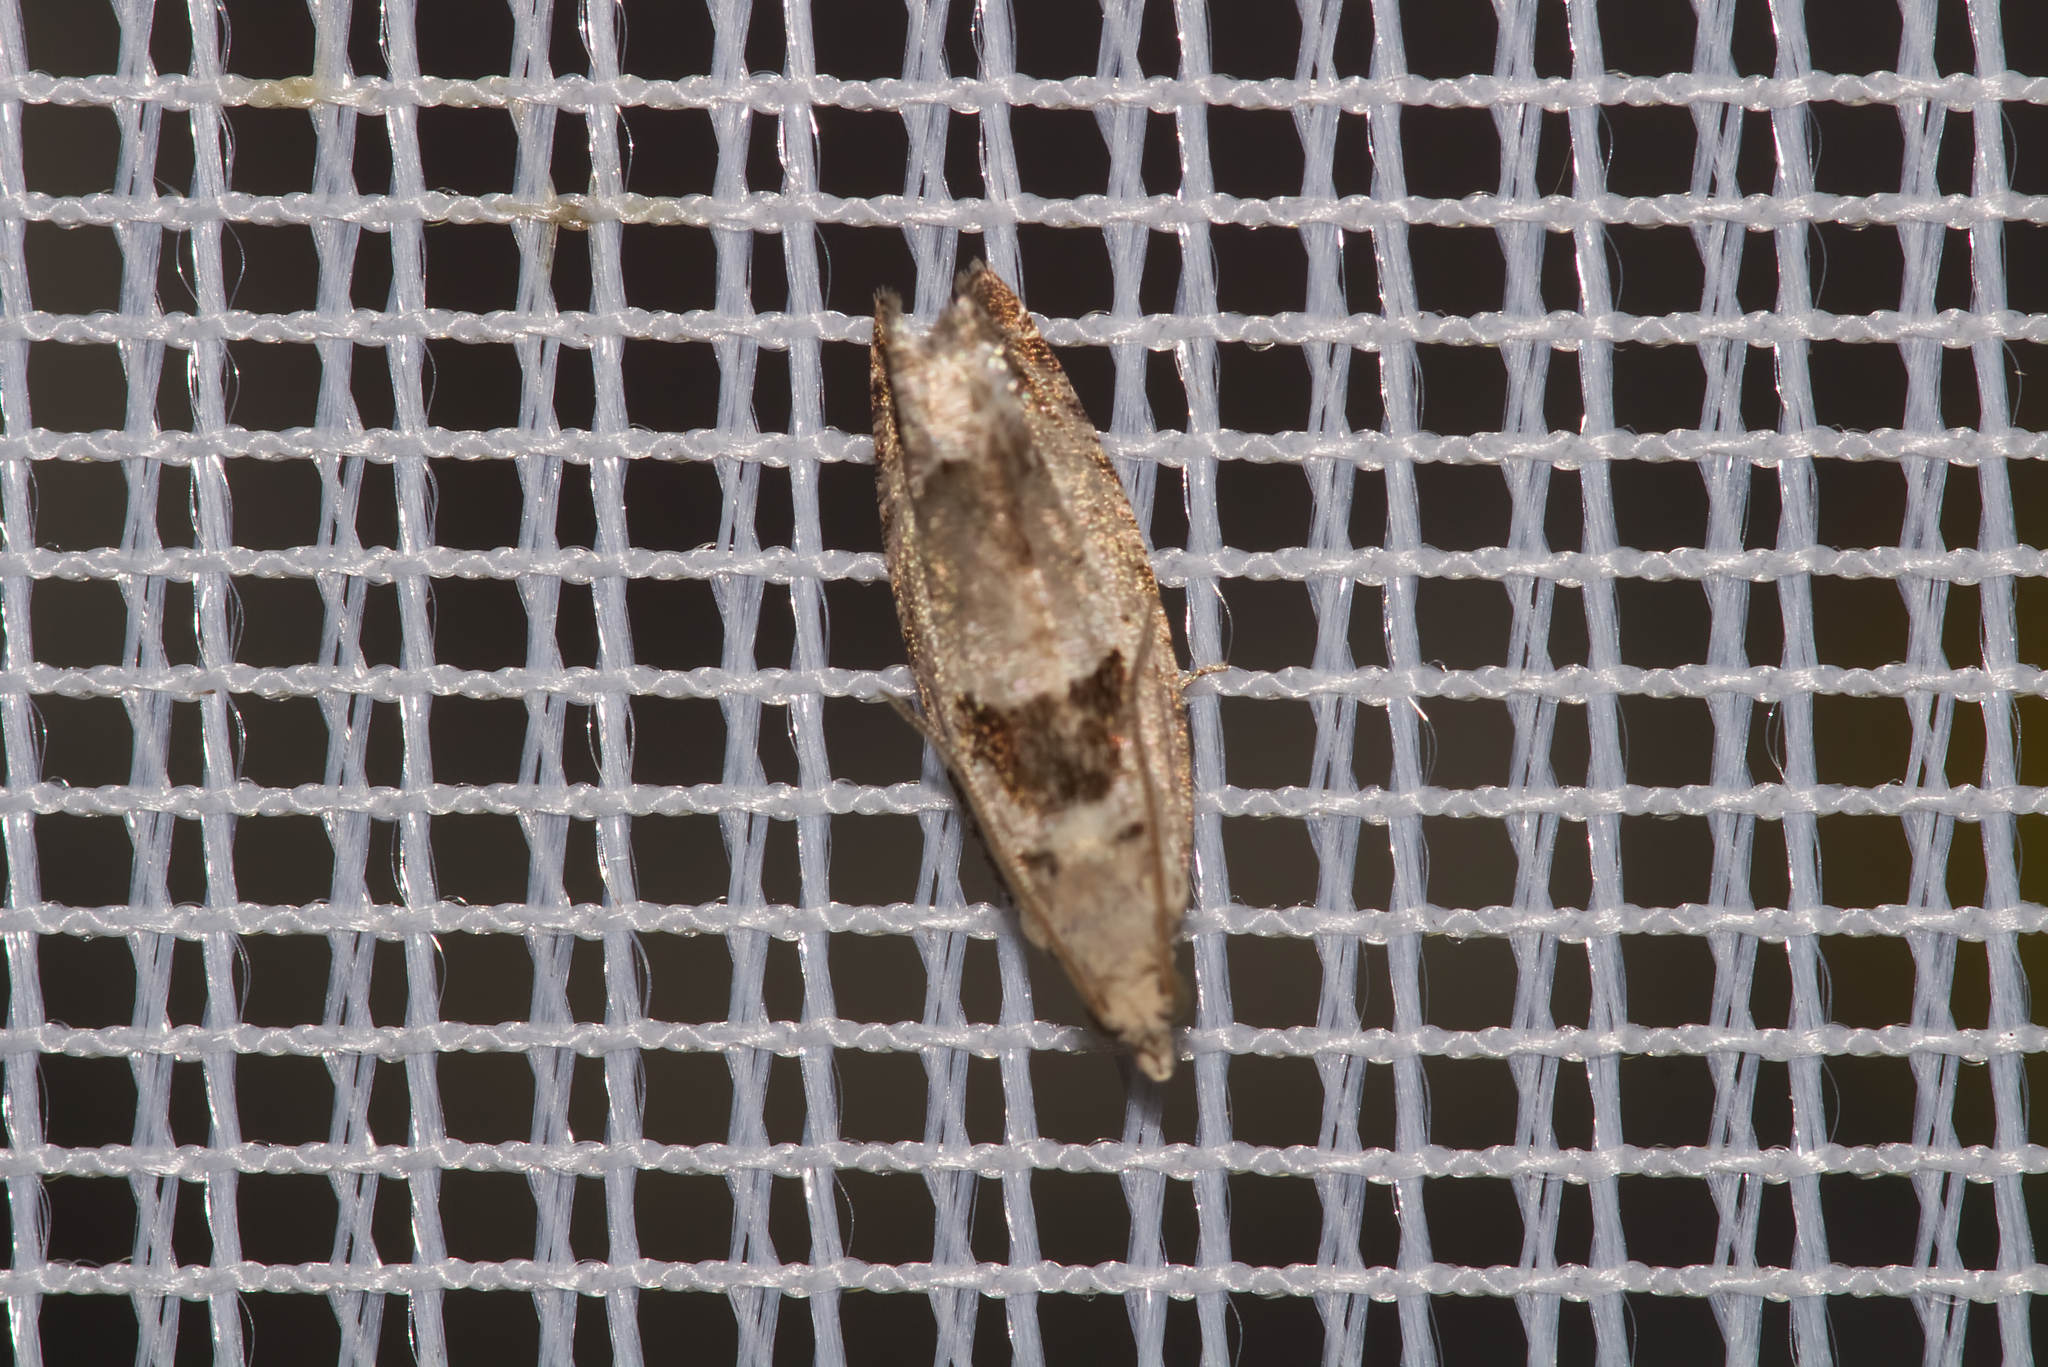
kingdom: Animalia
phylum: Arthropoda
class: Insecta
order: Lepidoptera
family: Tortricidae
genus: Epinotia
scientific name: Epinotia ramella
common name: Small birch bell
